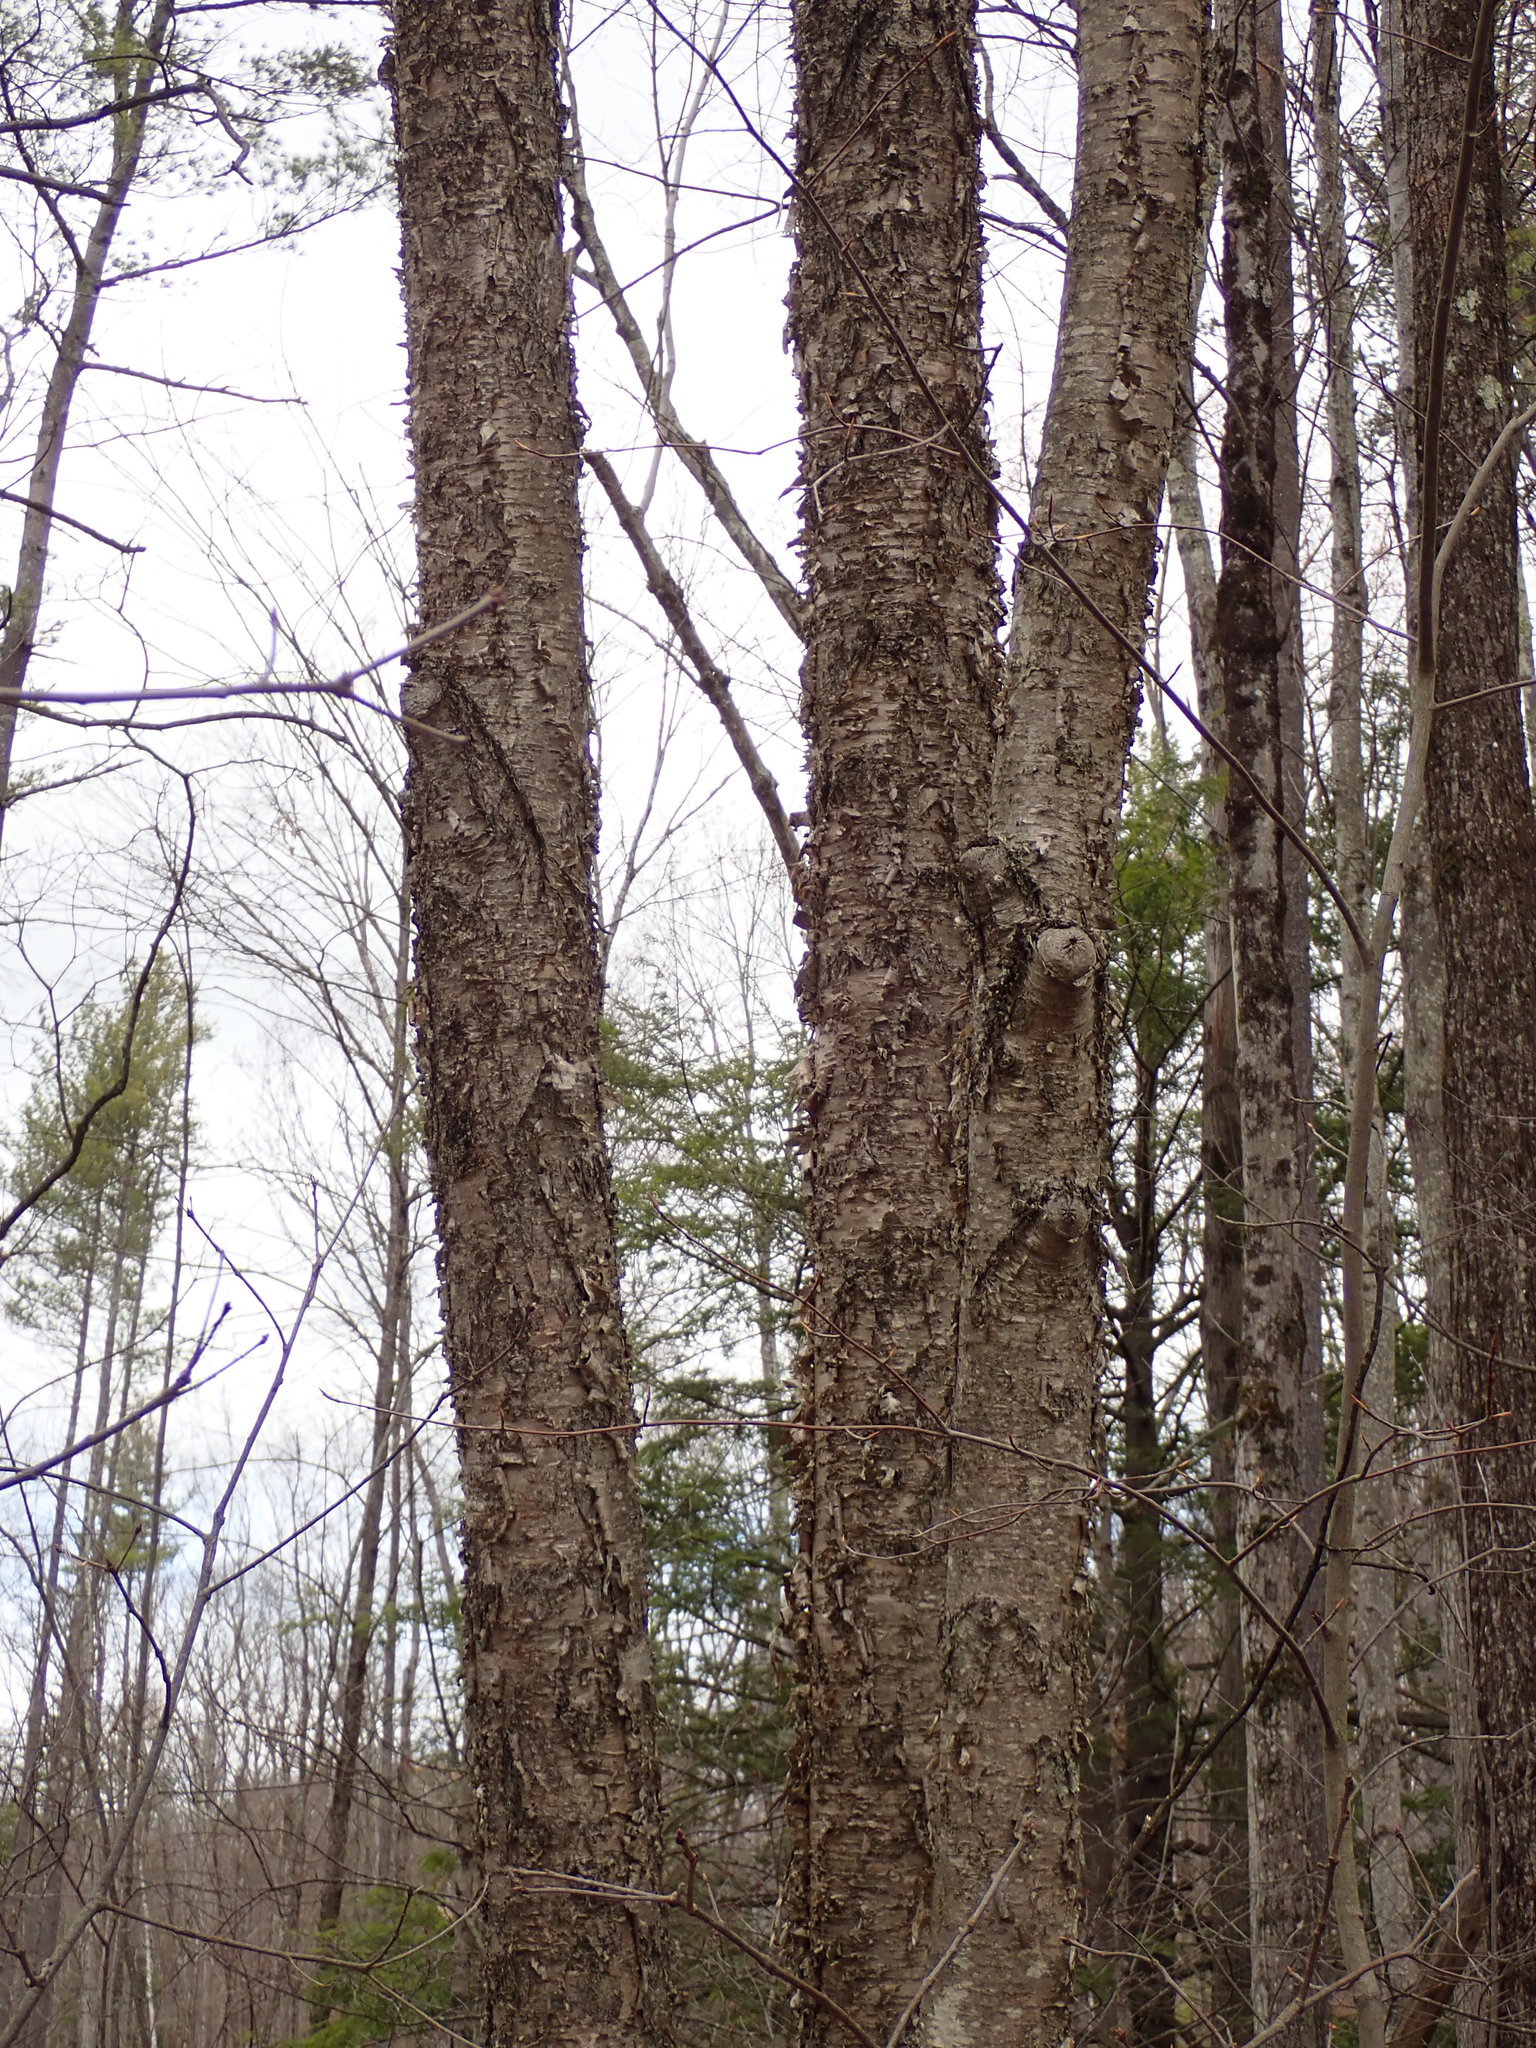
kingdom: Plantae
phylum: Tracheophyta
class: Magnoliopsida
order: Fagales
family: Betulaceae
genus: Betula
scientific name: Betula alleghaniensis
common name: Yellow birch
